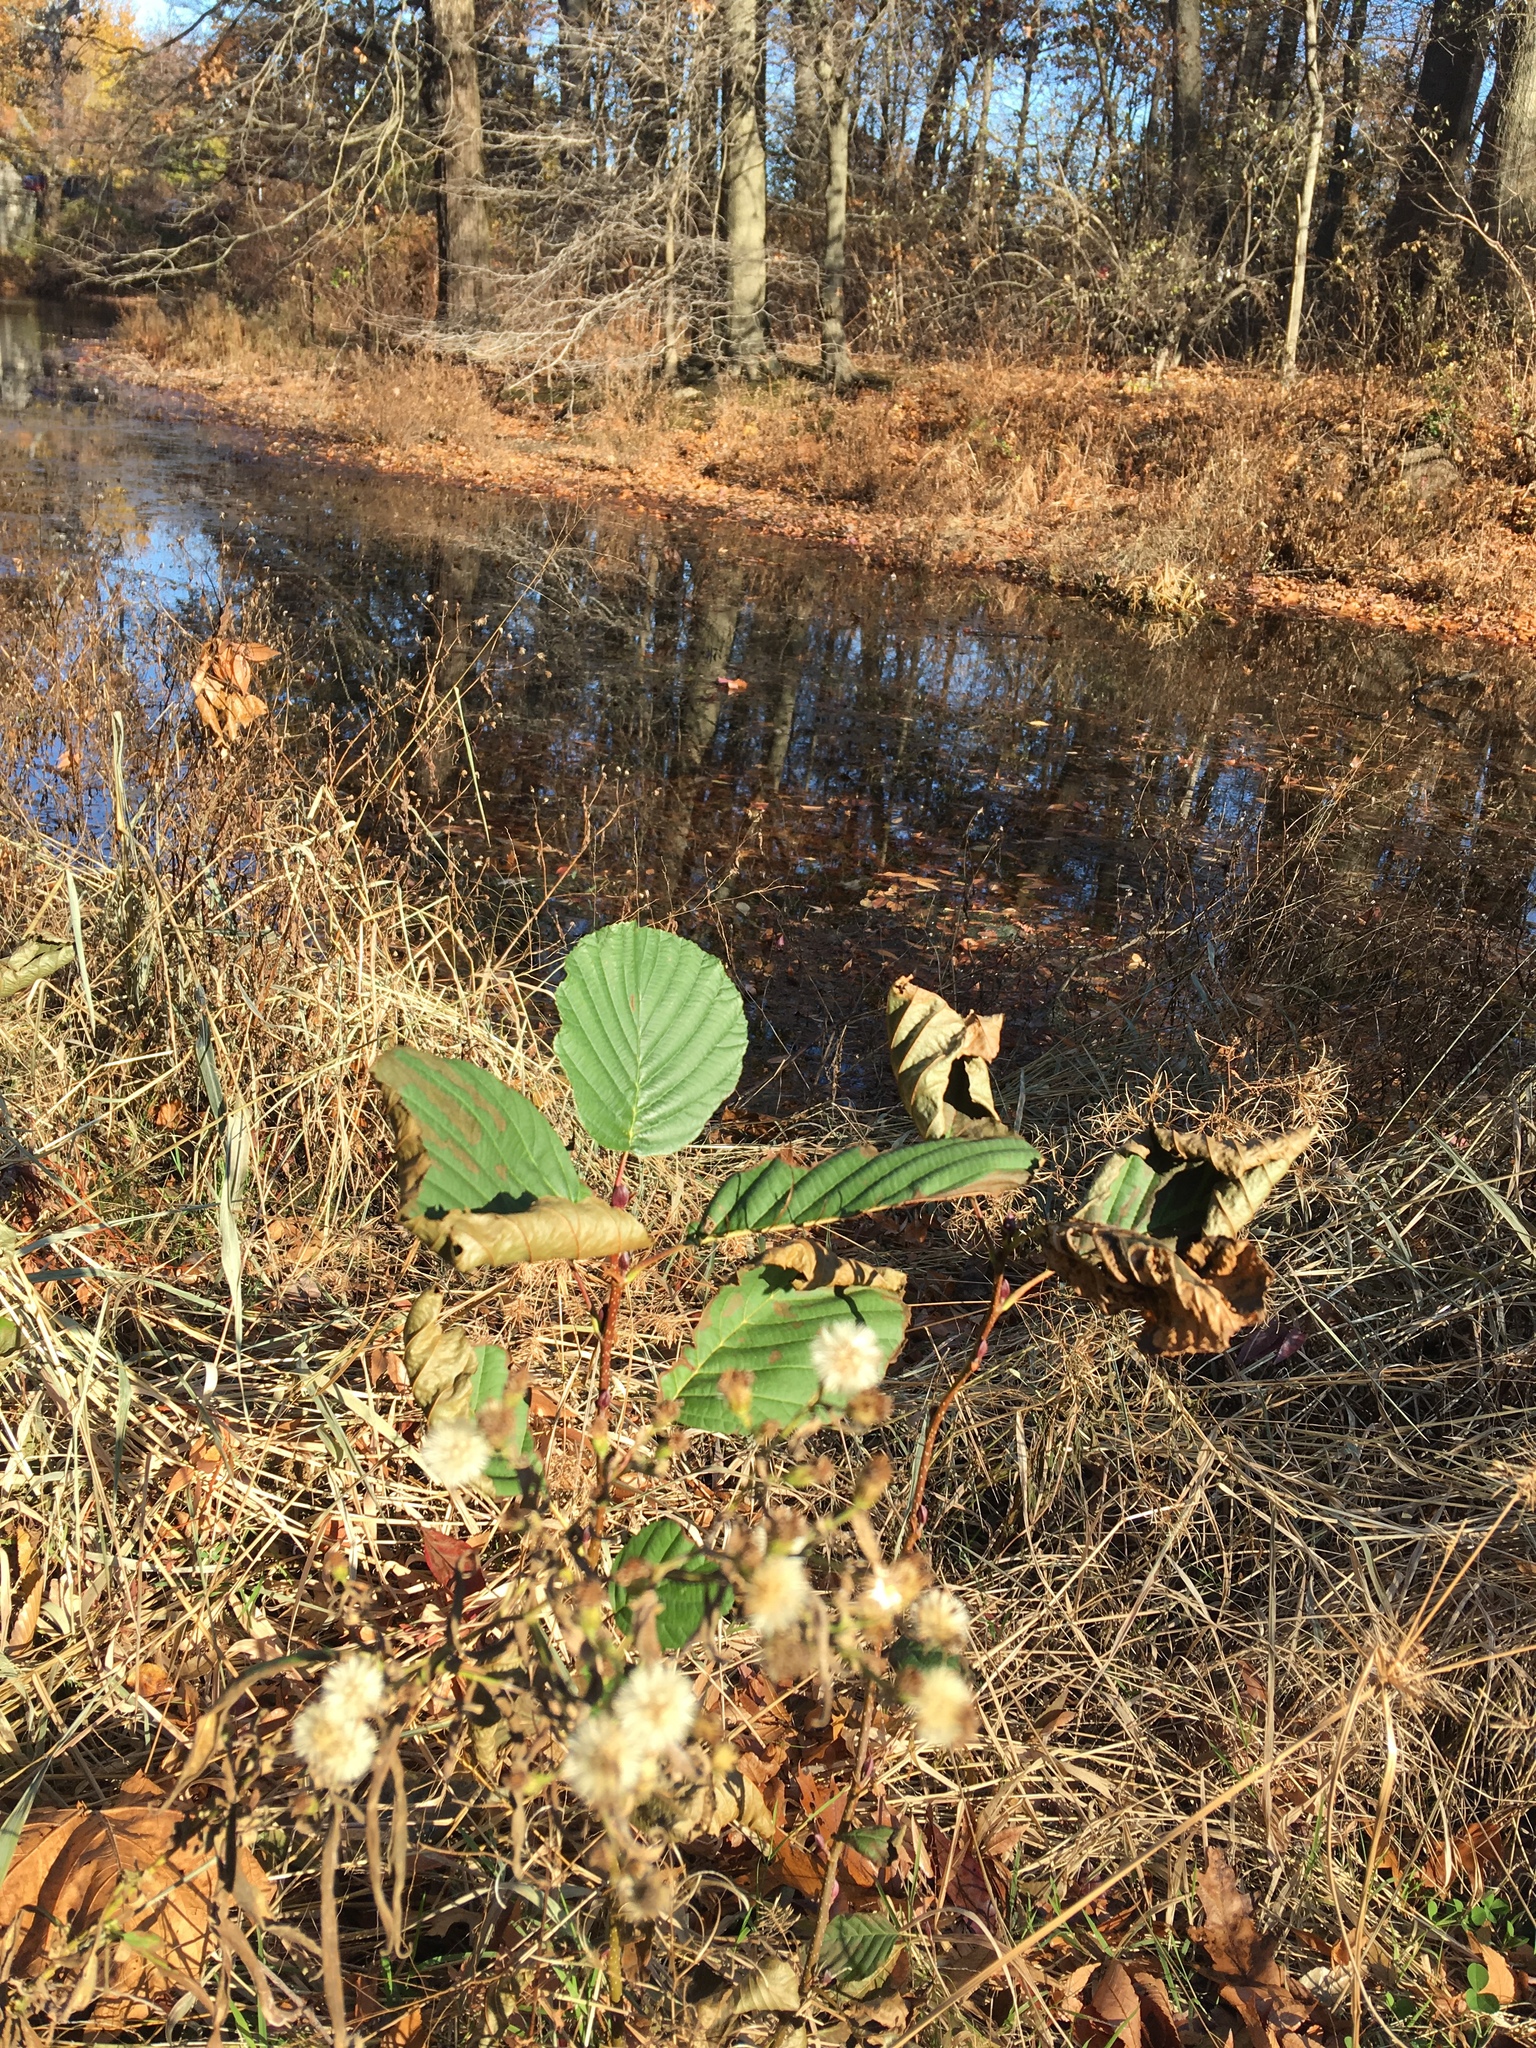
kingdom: Plantae
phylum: Tracheophyta
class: Magnoliopsida
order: Fagales
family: Betulaceae
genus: Alnus
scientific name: Alnus glutinosa
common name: Black alder
